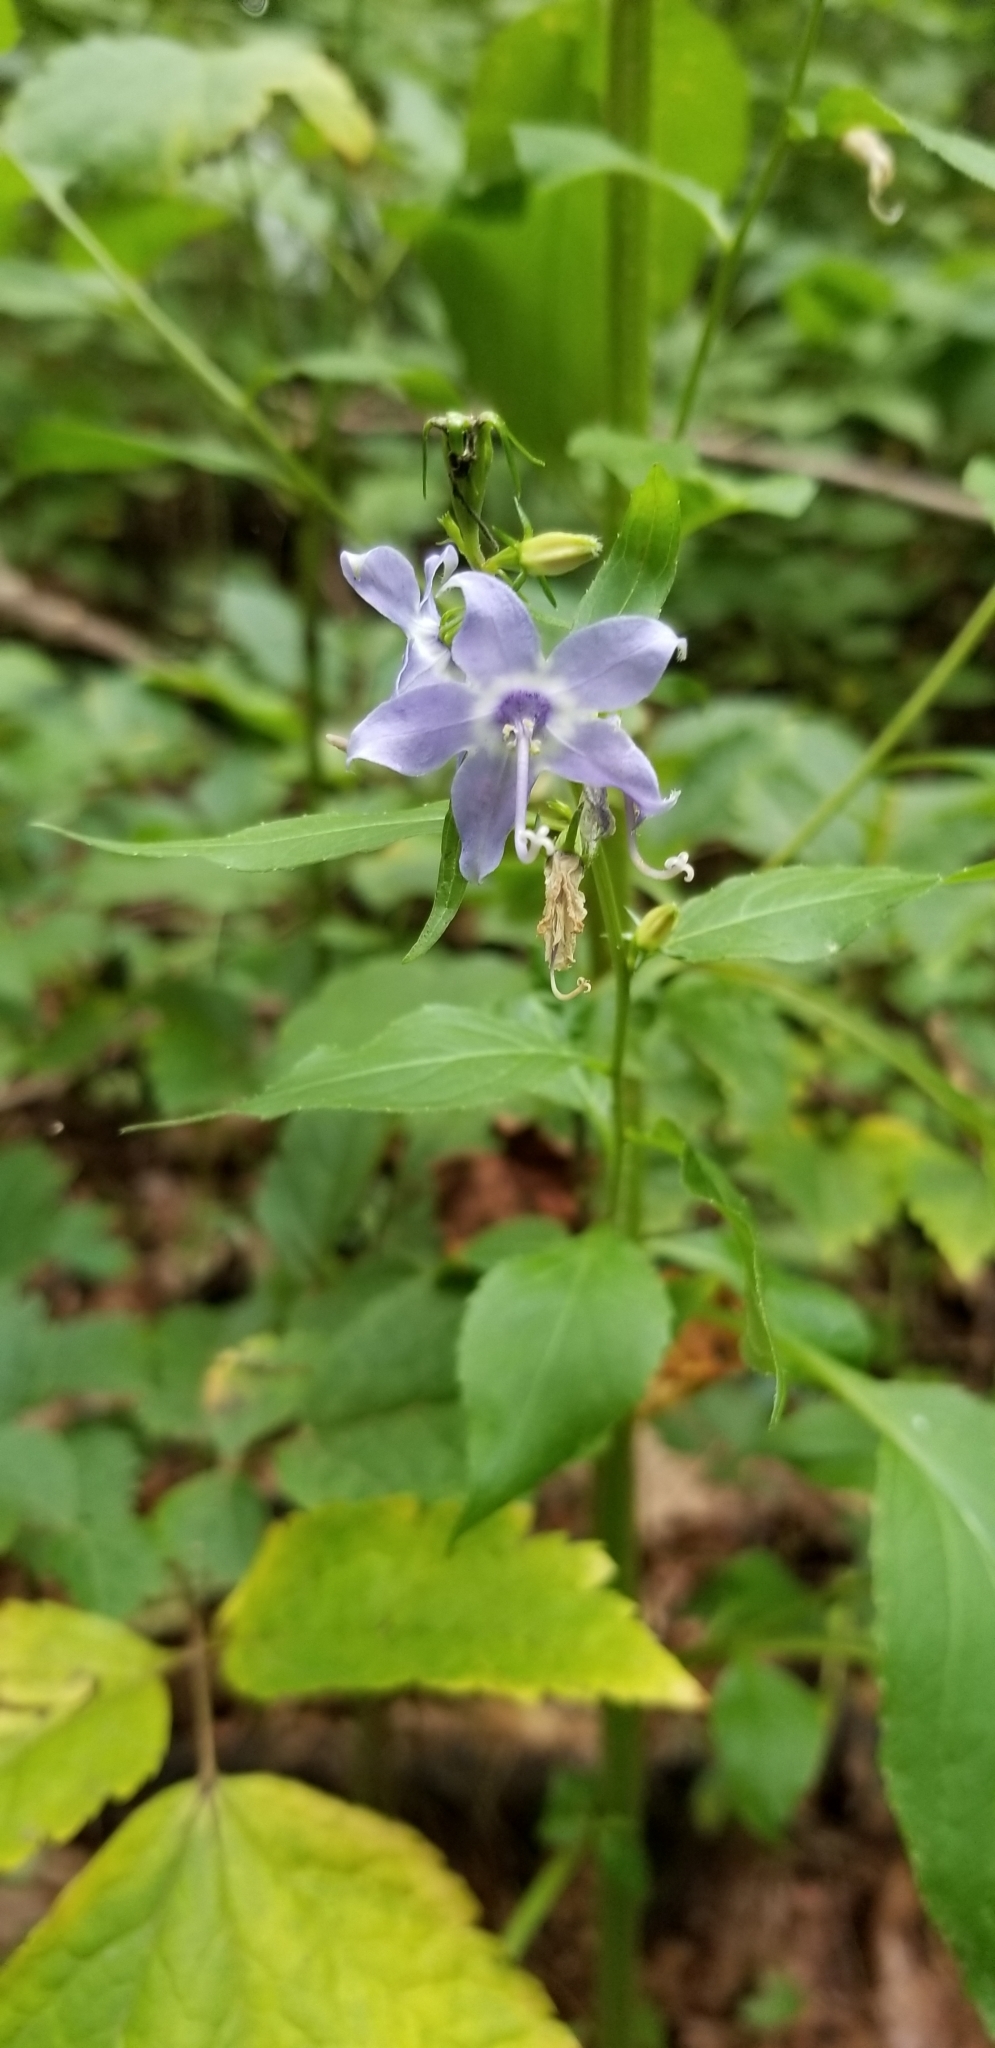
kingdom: Plantae
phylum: Tracheophyta
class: Magnoliopsida
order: Asterales
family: Campanulaceae
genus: Campanulastrum
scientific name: Campanulastrum americanum
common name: American bellflower
